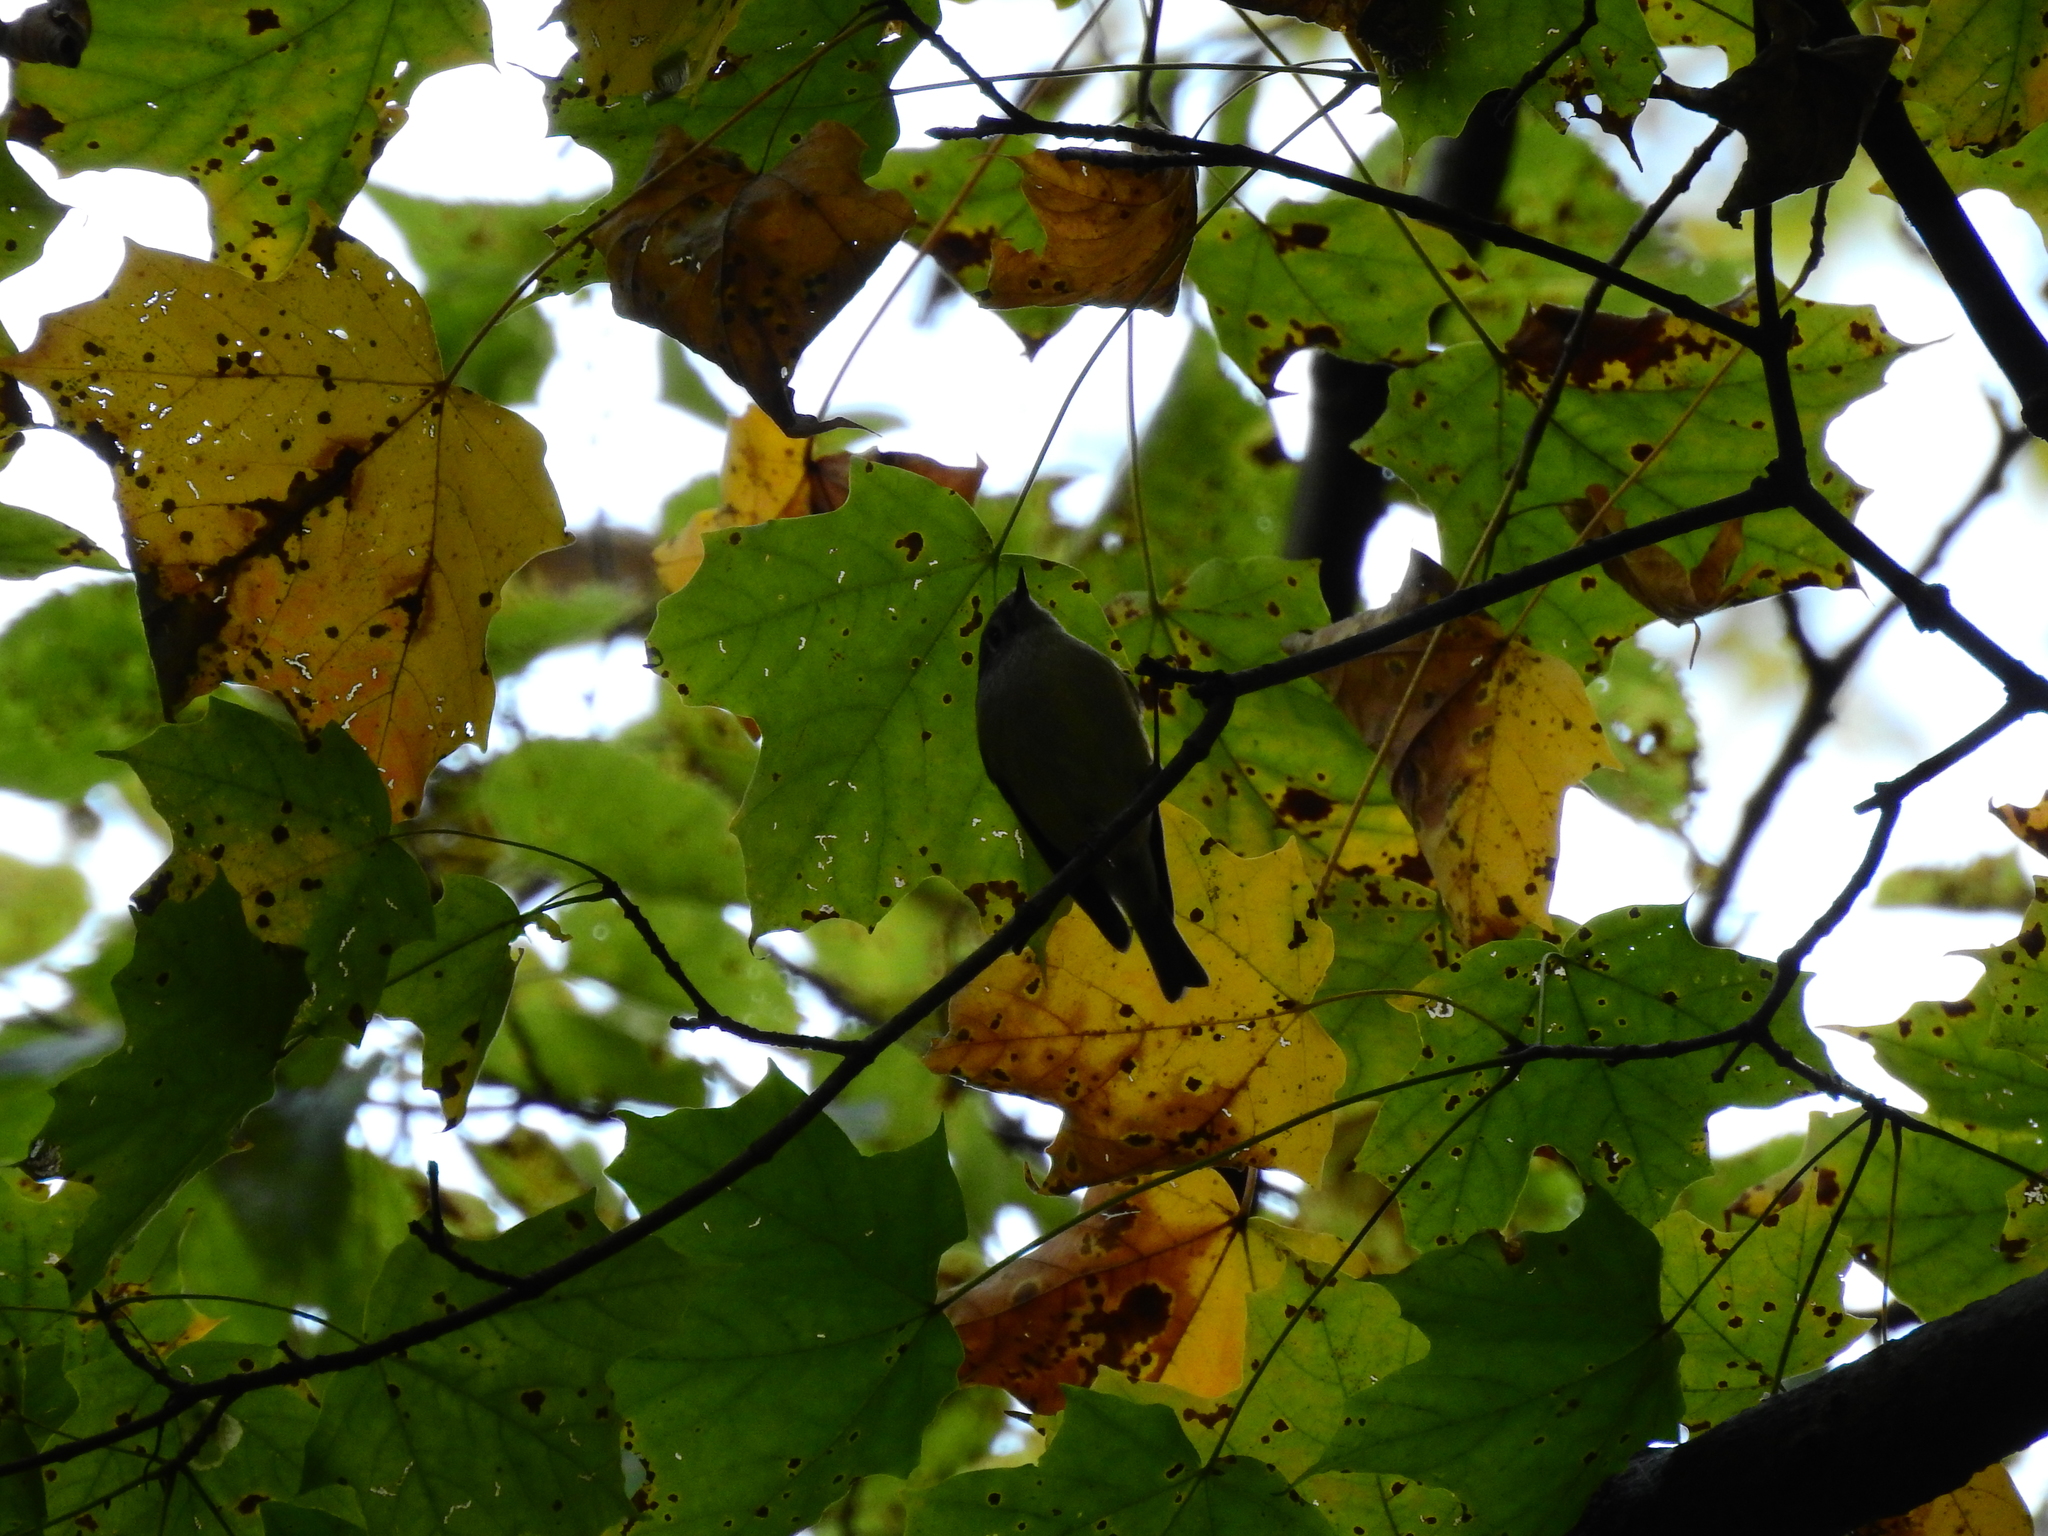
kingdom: Animalia
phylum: Chordata
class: Aves
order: Passeriformes
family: Regulidae
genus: Regulus
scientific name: Regulus calendula
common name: Ruby-crowned kinglet
